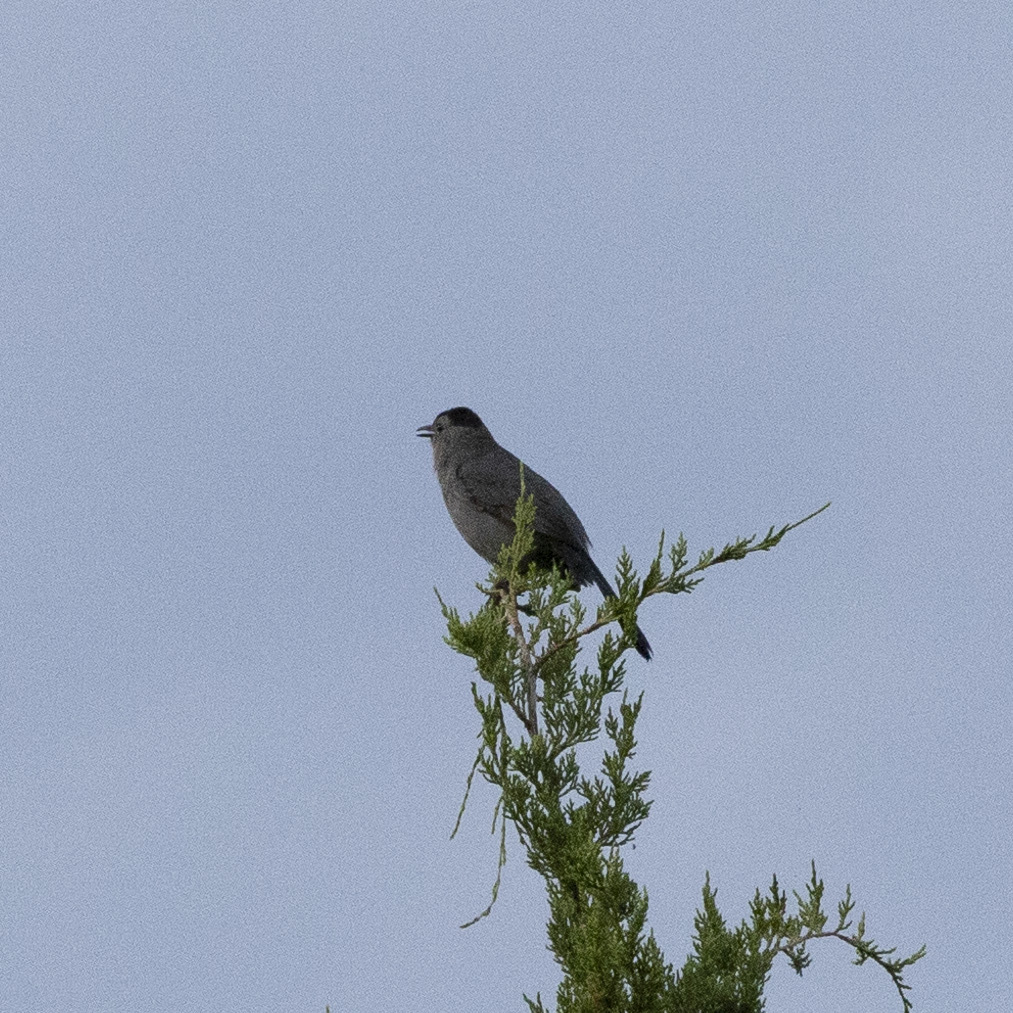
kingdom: Animalia
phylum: Chordata
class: Aves
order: Passeriformes
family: Mimidae
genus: Dumetella
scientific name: Dumetella carolinensis
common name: Gray catbird
